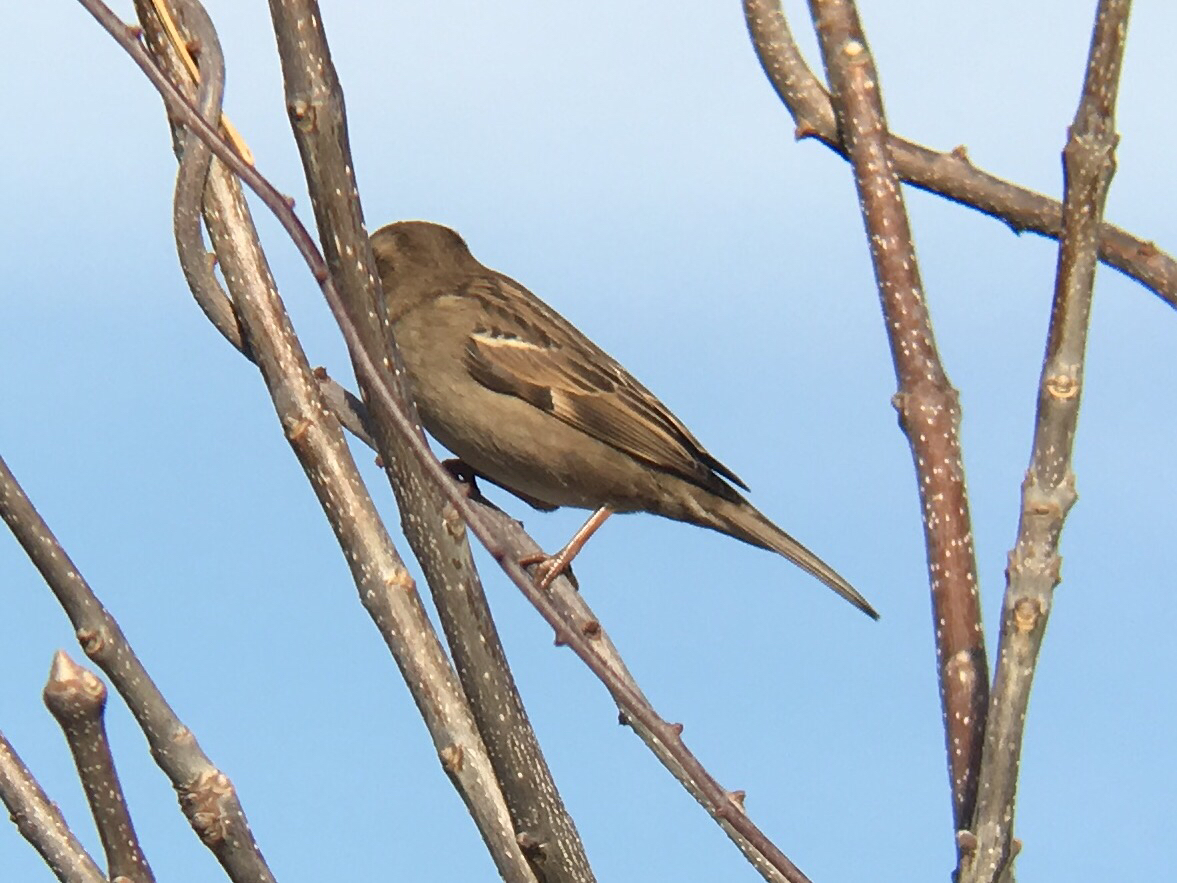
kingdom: Animalia
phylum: Chordata
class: Aves
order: Passeriformes
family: Passeridae
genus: Passer
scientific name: Passer domesticus
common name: House sparrow
